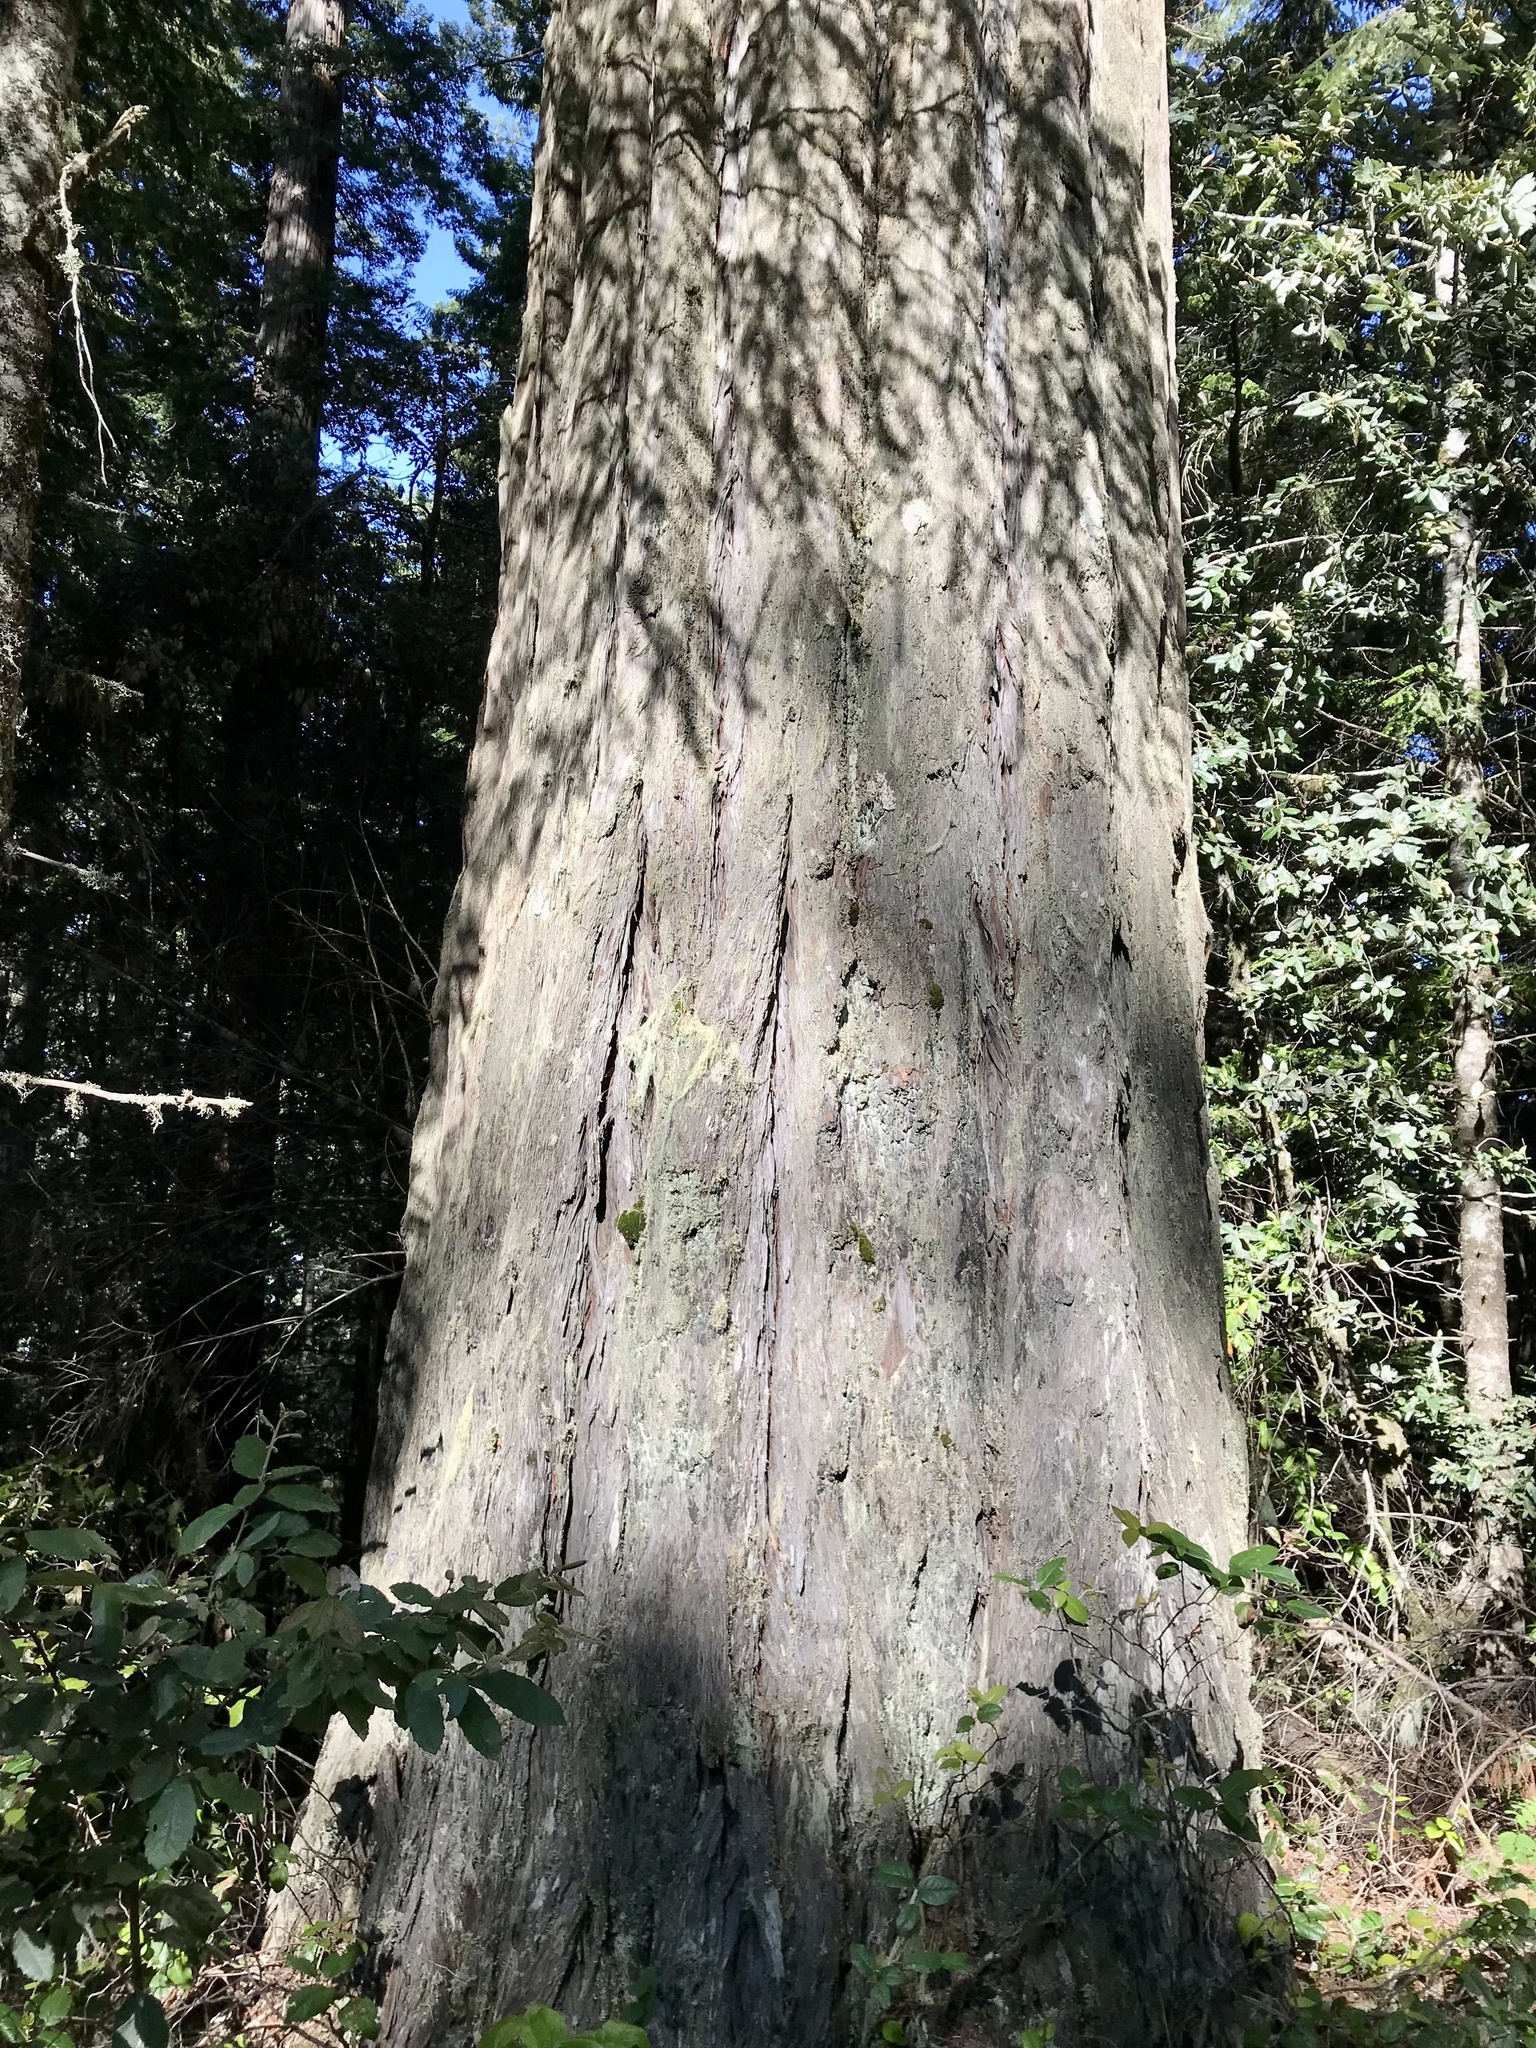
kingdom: Plantae
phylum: Tracheophyta
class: Pinopsida
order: Pinales
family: Cupressaceae
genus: Sequoia
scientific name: Sequoia sempervirens
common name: Coast redwood
